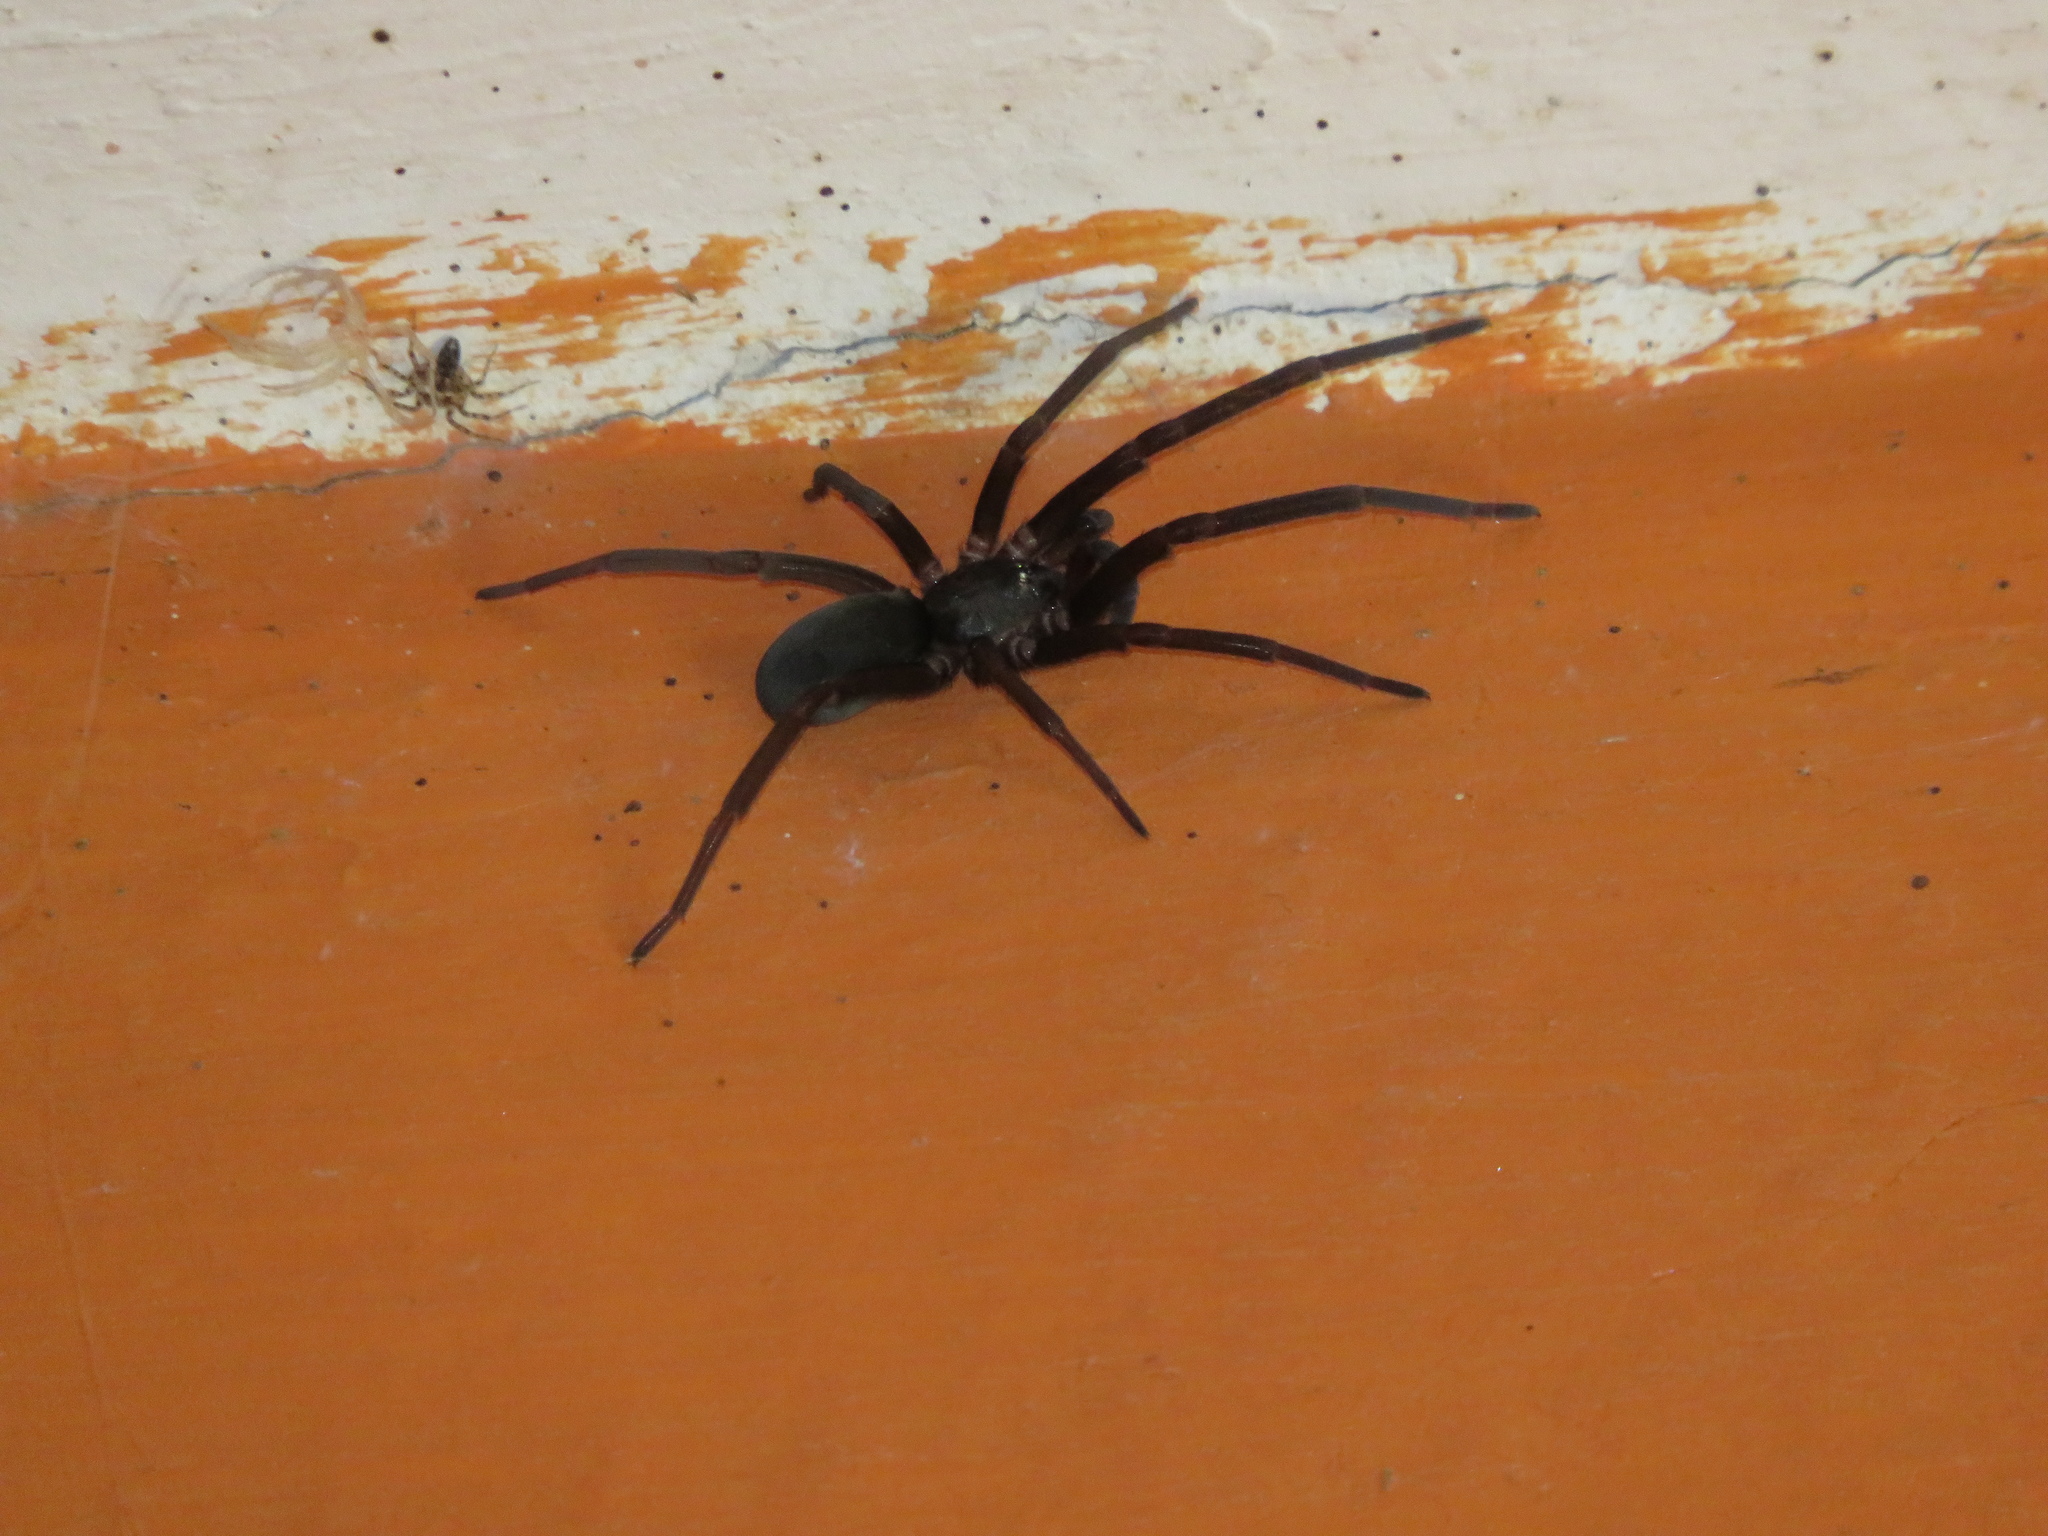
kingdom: Animalia
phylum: Arthropoda
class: Arachnida
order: Araneae
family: Filistatidae
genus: Kukulcania
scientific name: Kukulcania hibernalis
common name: Crevice weaver
